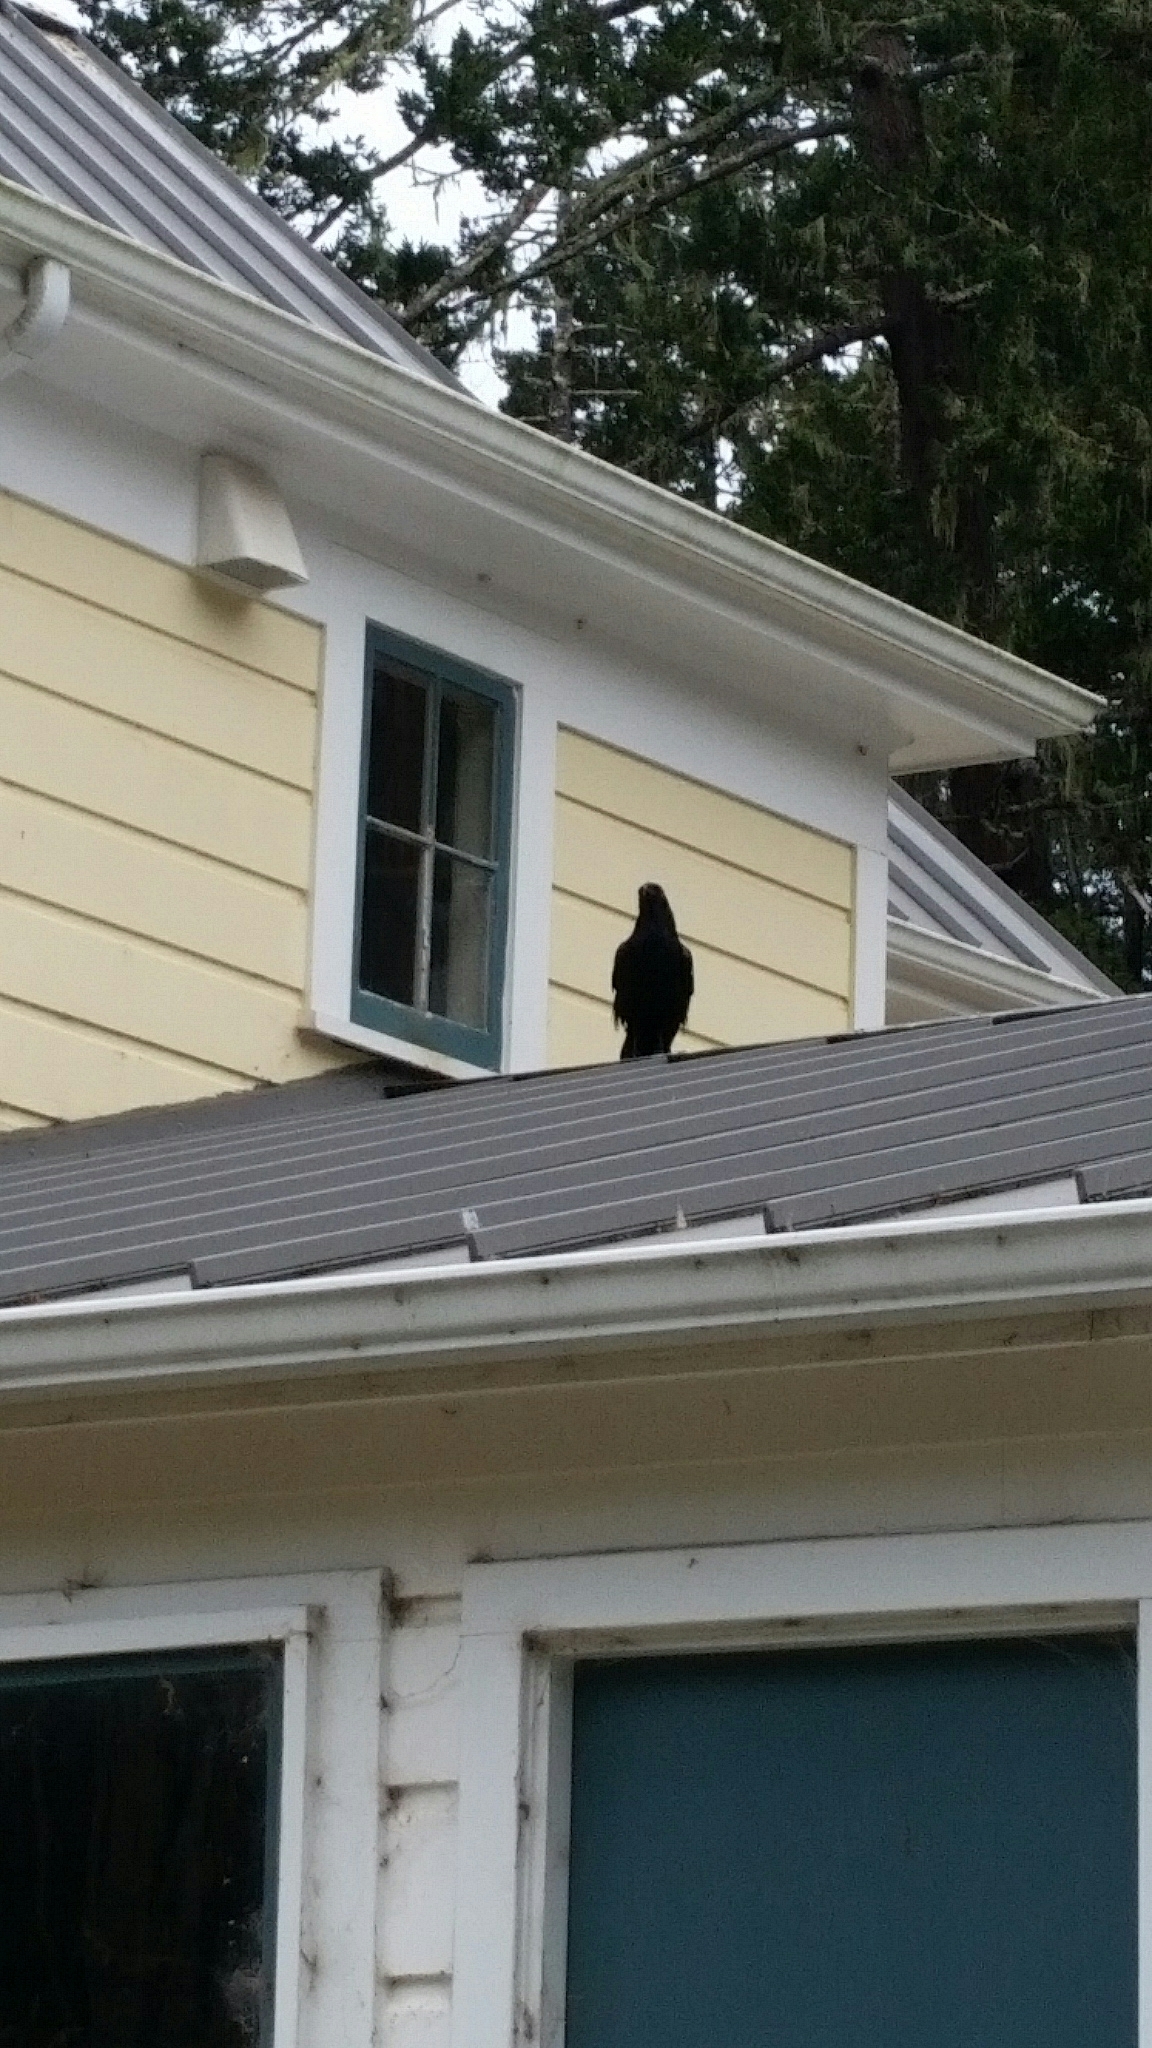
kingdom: Animalia
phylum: Chordata
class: Aves
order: Passeriformes
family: Corvidae
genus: Corvus
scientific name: Corvus corax
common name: Common raven
